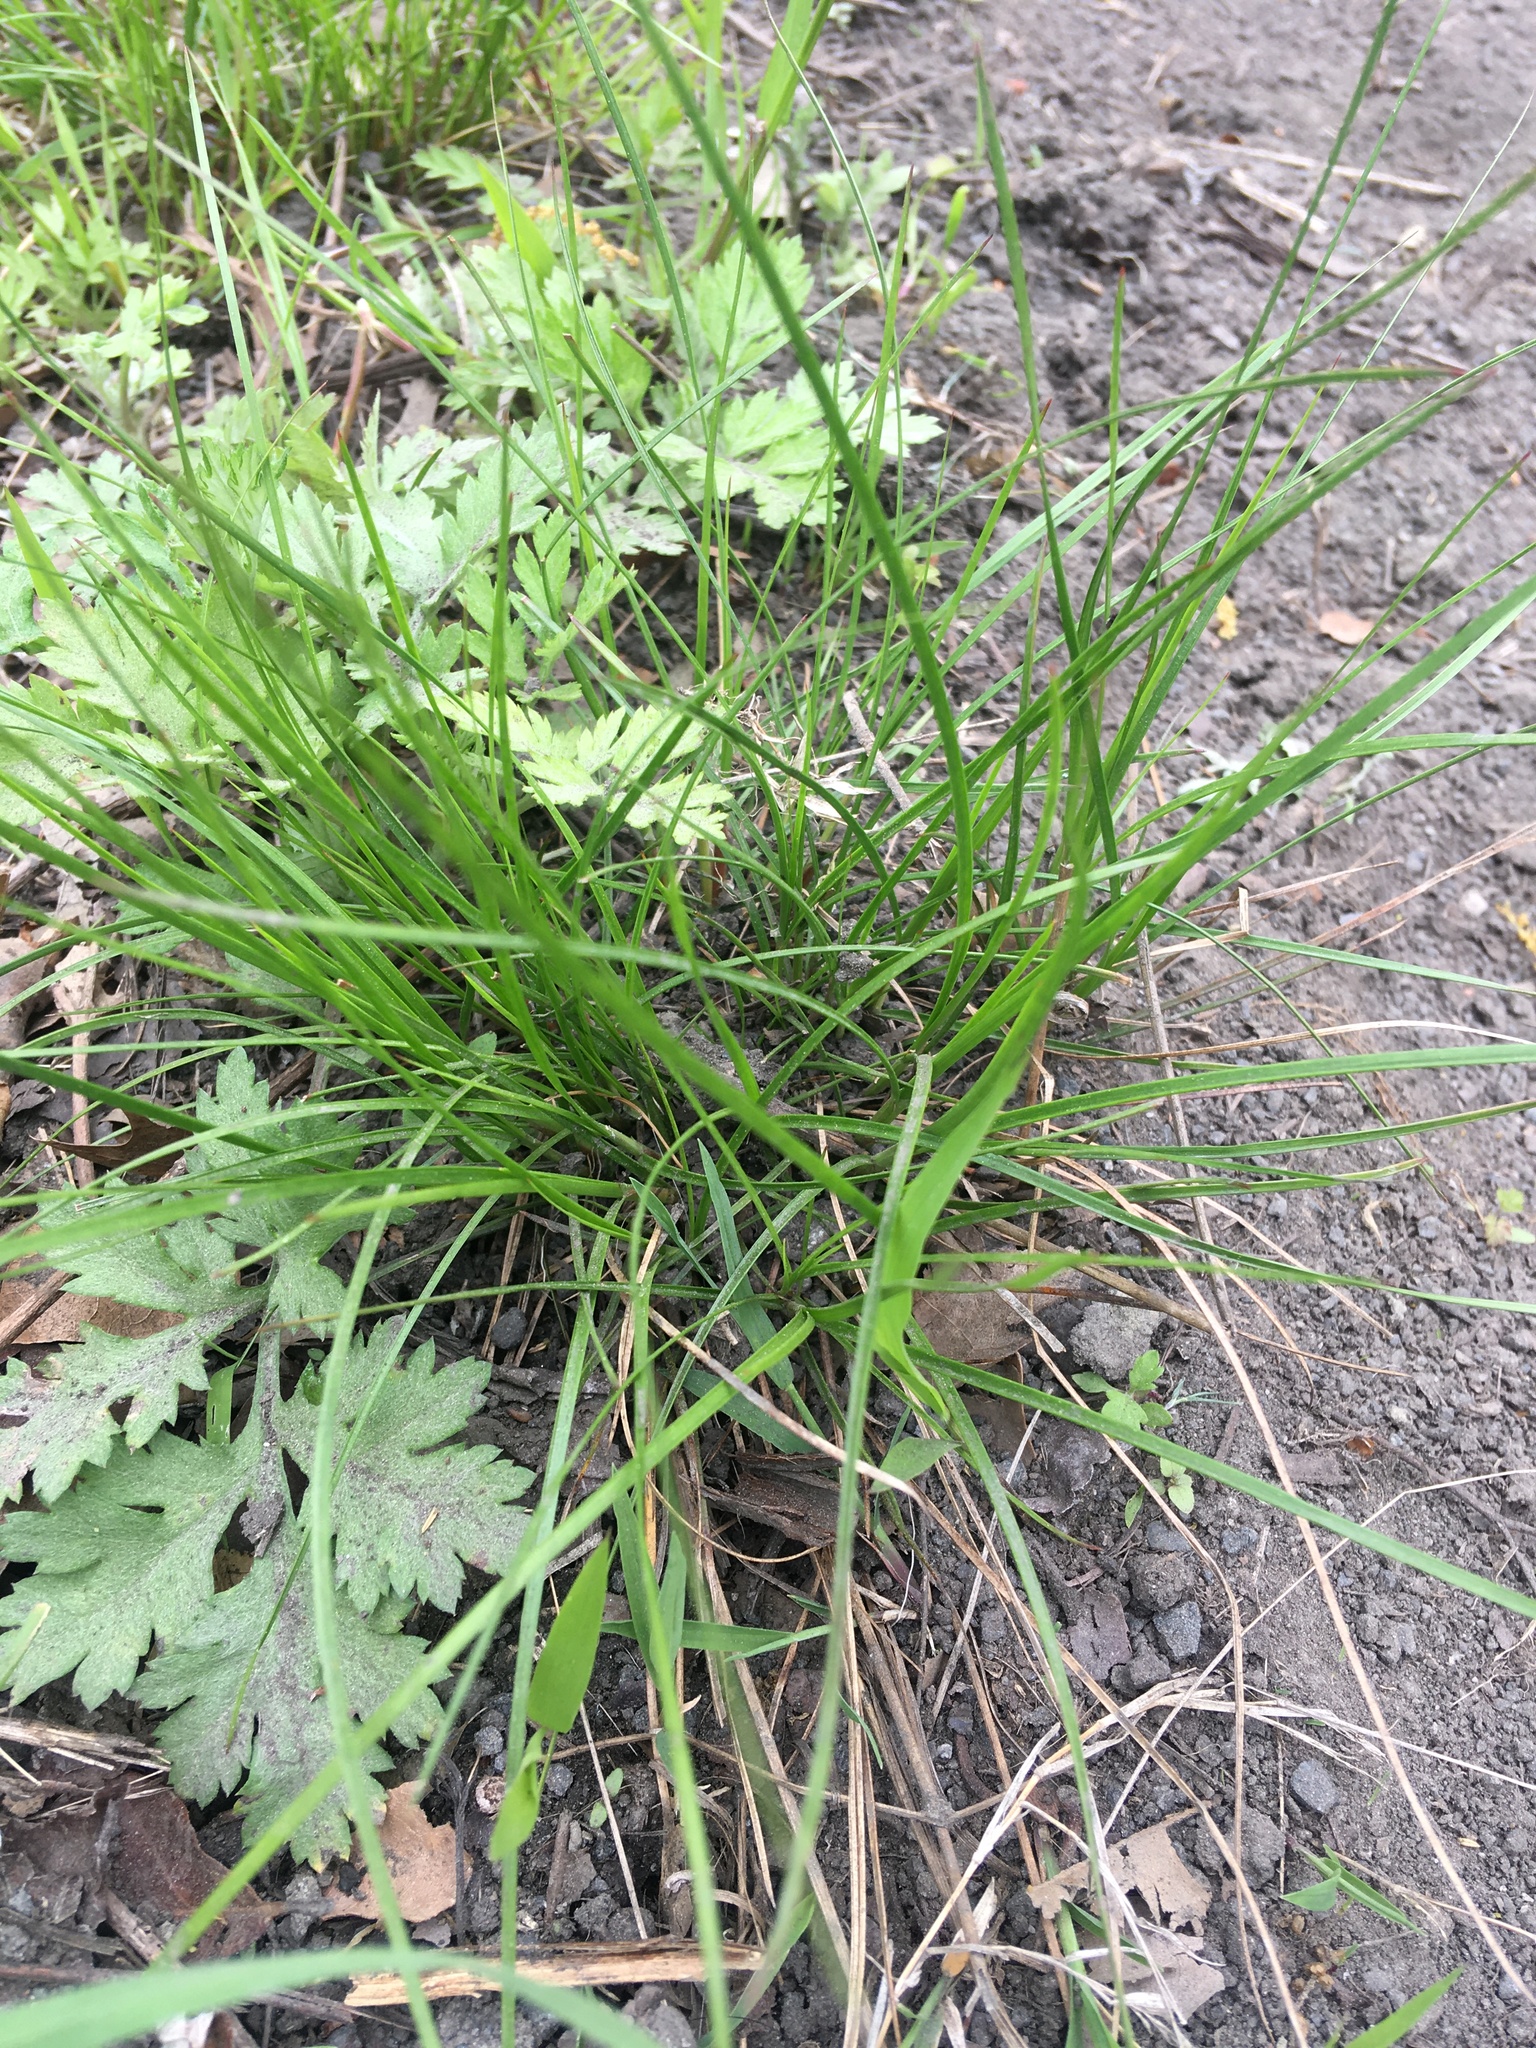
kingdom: Plantae
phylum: Tracheophyta
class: Liliopsida
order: Poales
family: Juncaceae
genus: Juncus
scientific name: Juncus tenuis
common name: Slender rush
